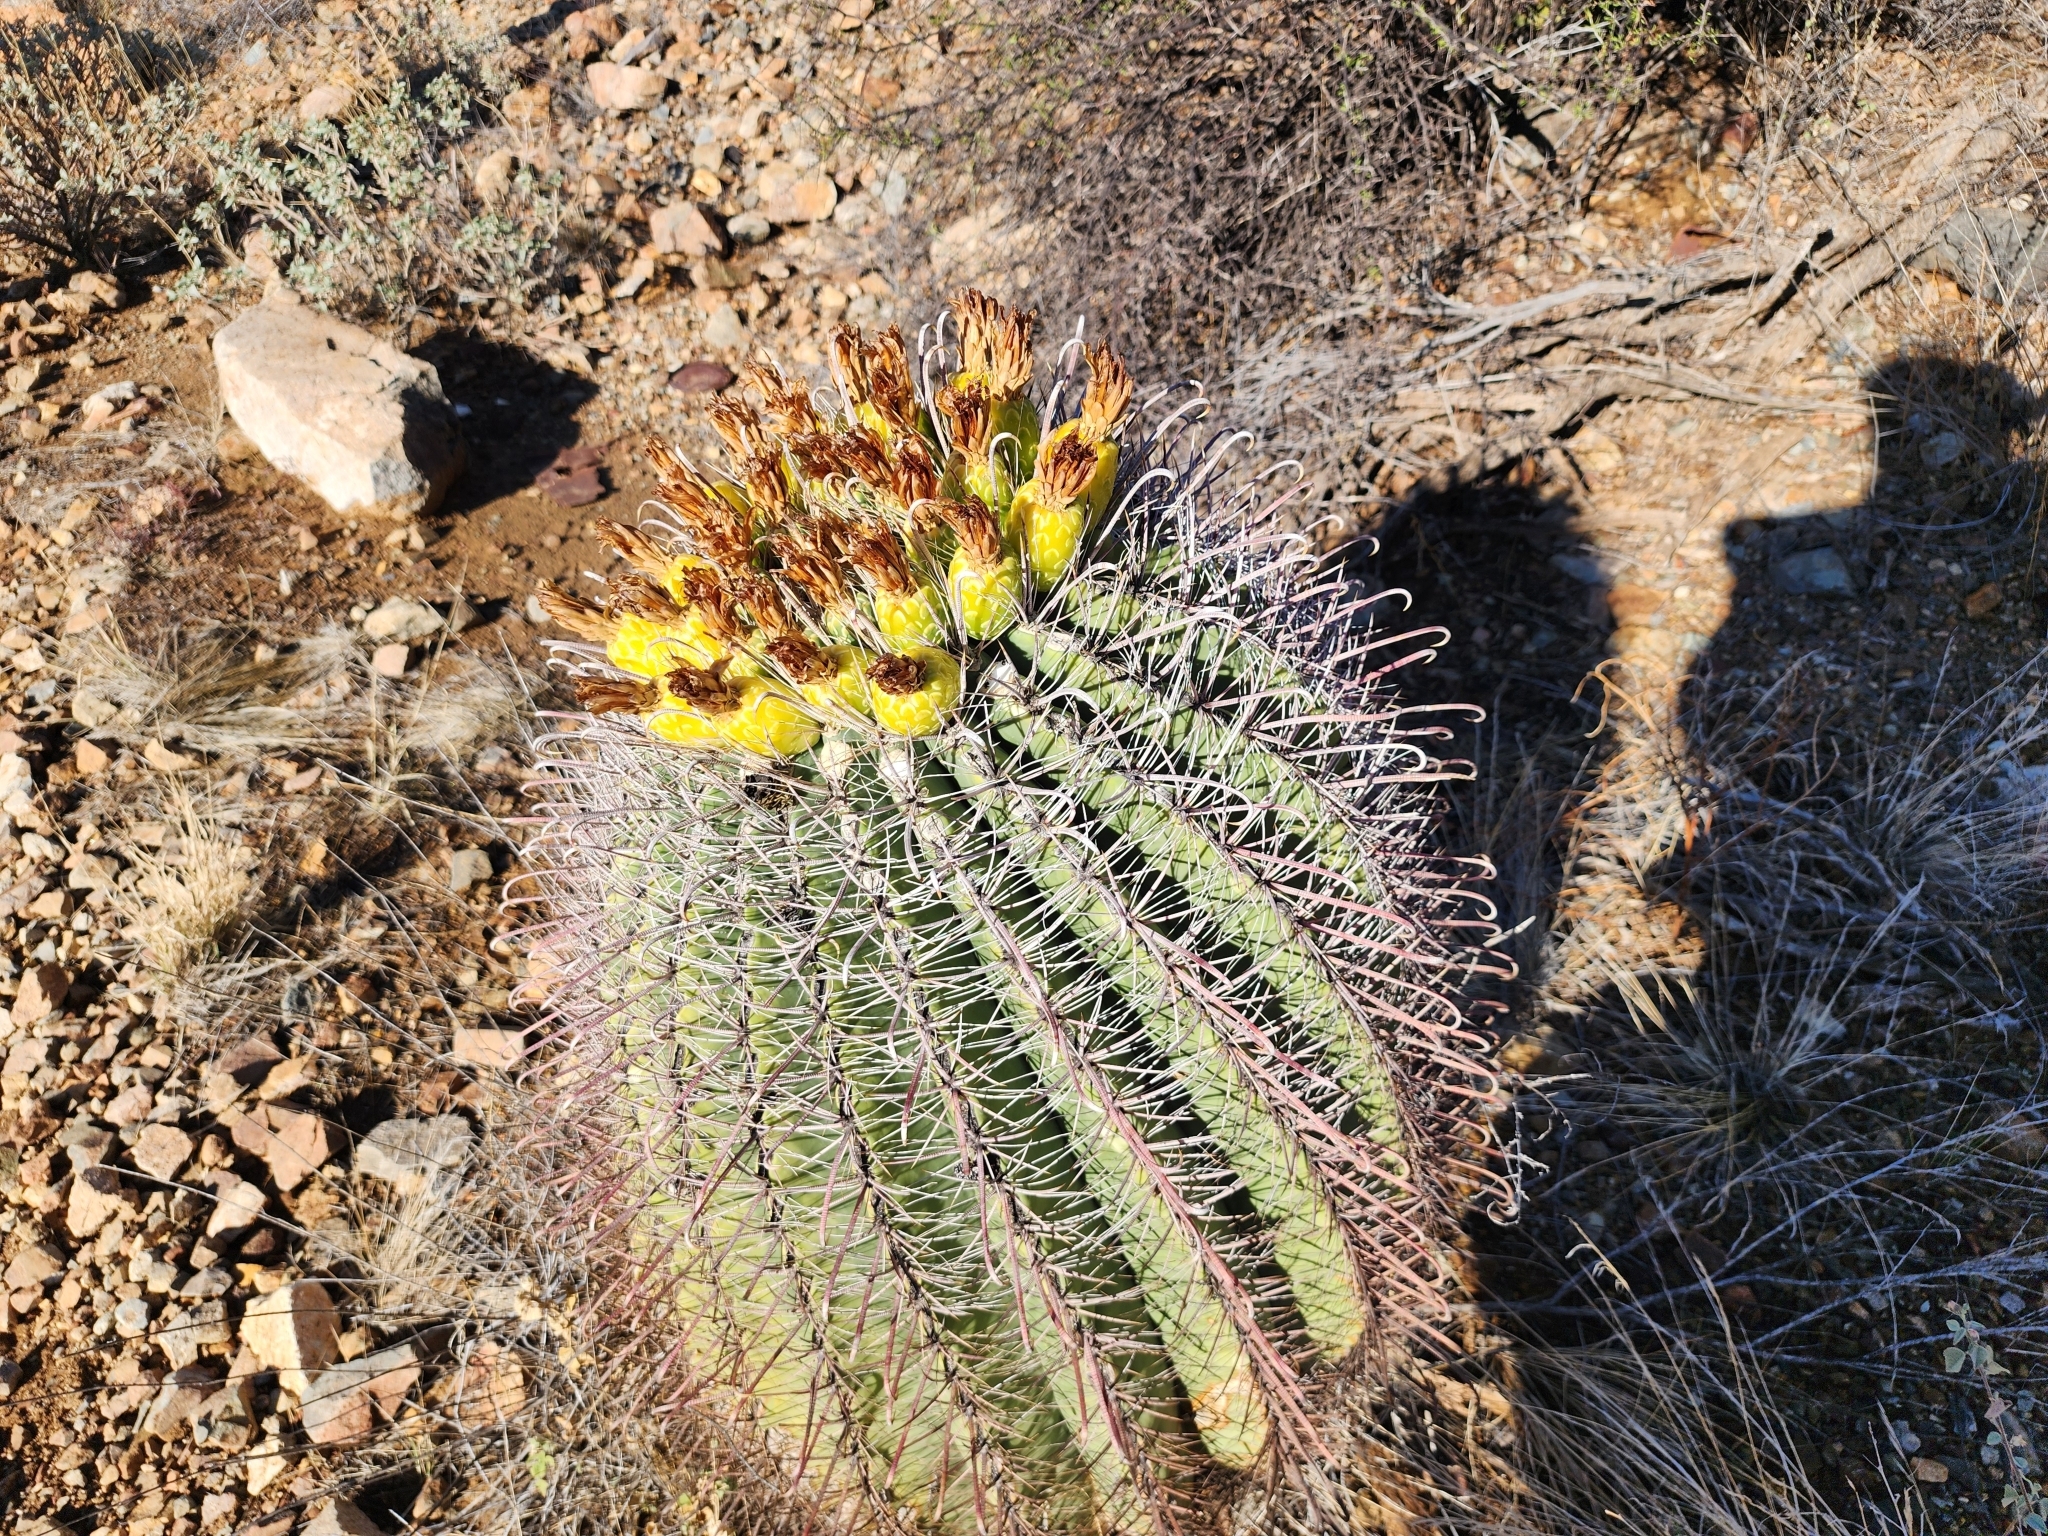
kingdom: Plantae
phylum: Tracheophyta
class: Magnoliopsida
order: Caryophyllales
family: Cactaceae
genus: Ferocactus
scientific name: Ferocactus wislizeni
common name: Candy barrel cactus
